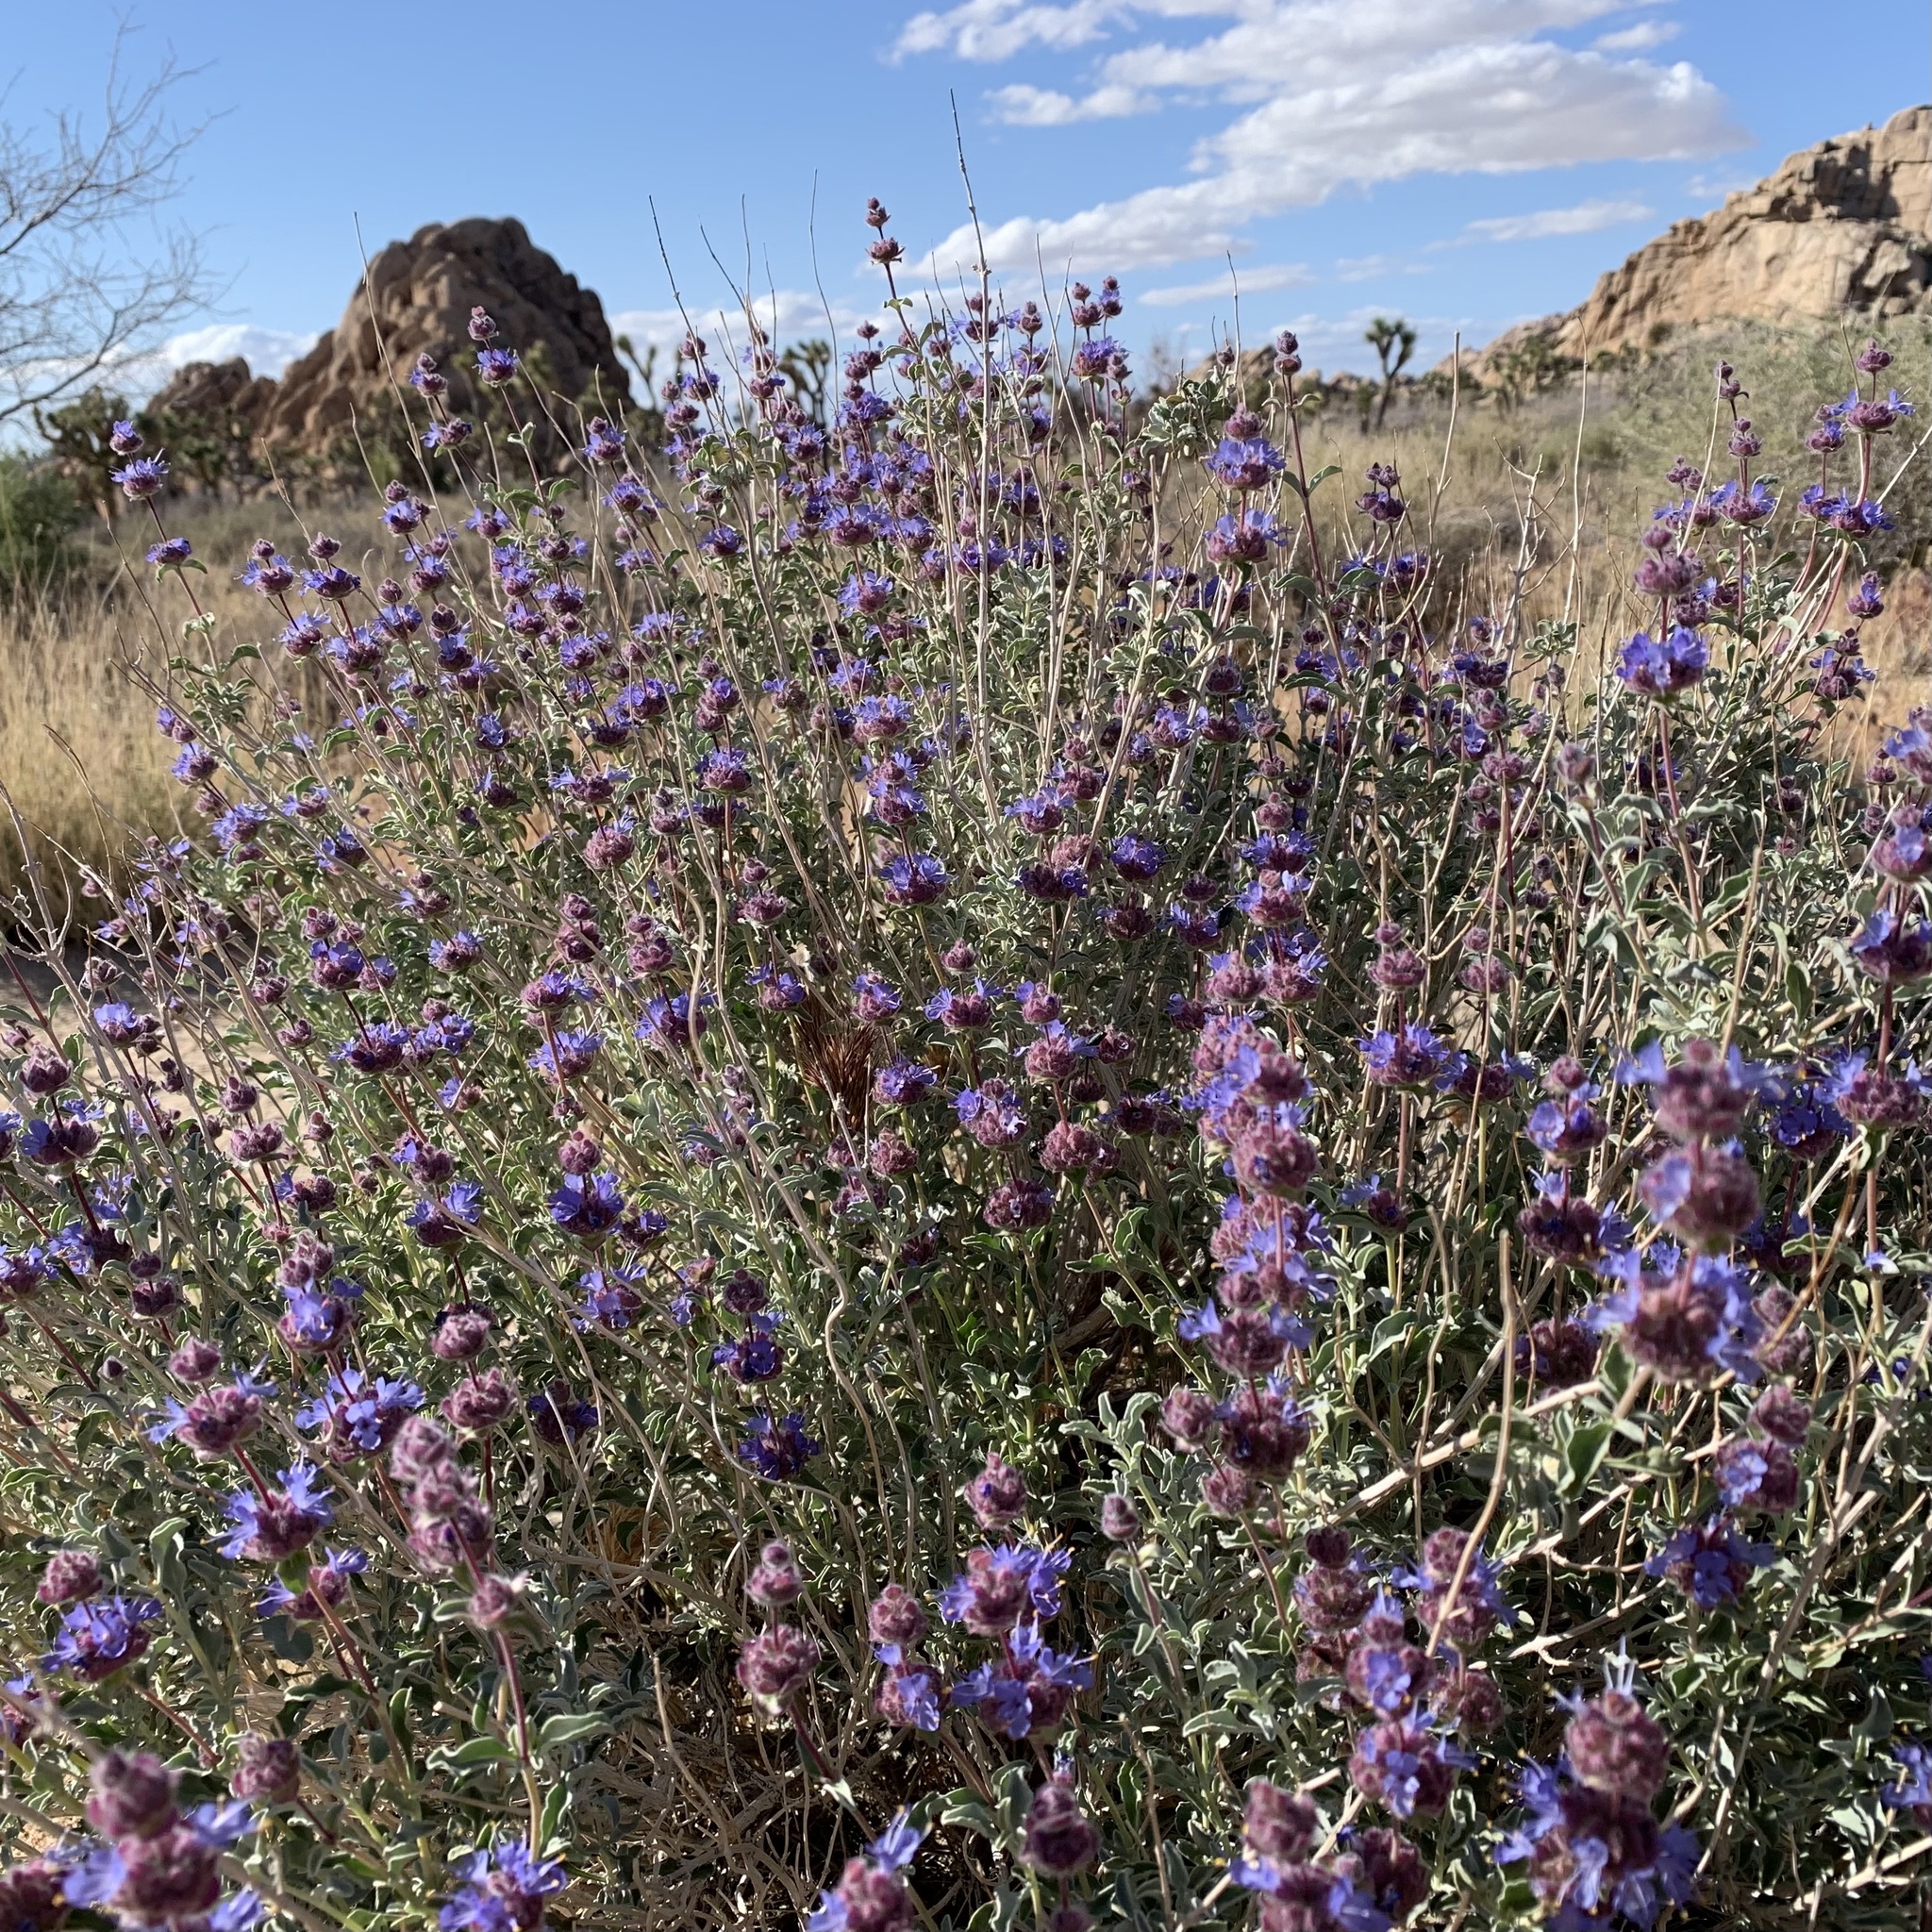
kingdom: Plantae
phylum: Tracheophyta
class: Magnoliopsida
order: Lamiales
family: Lamiaceae
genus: Salvia
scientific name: Salvia dorrii
